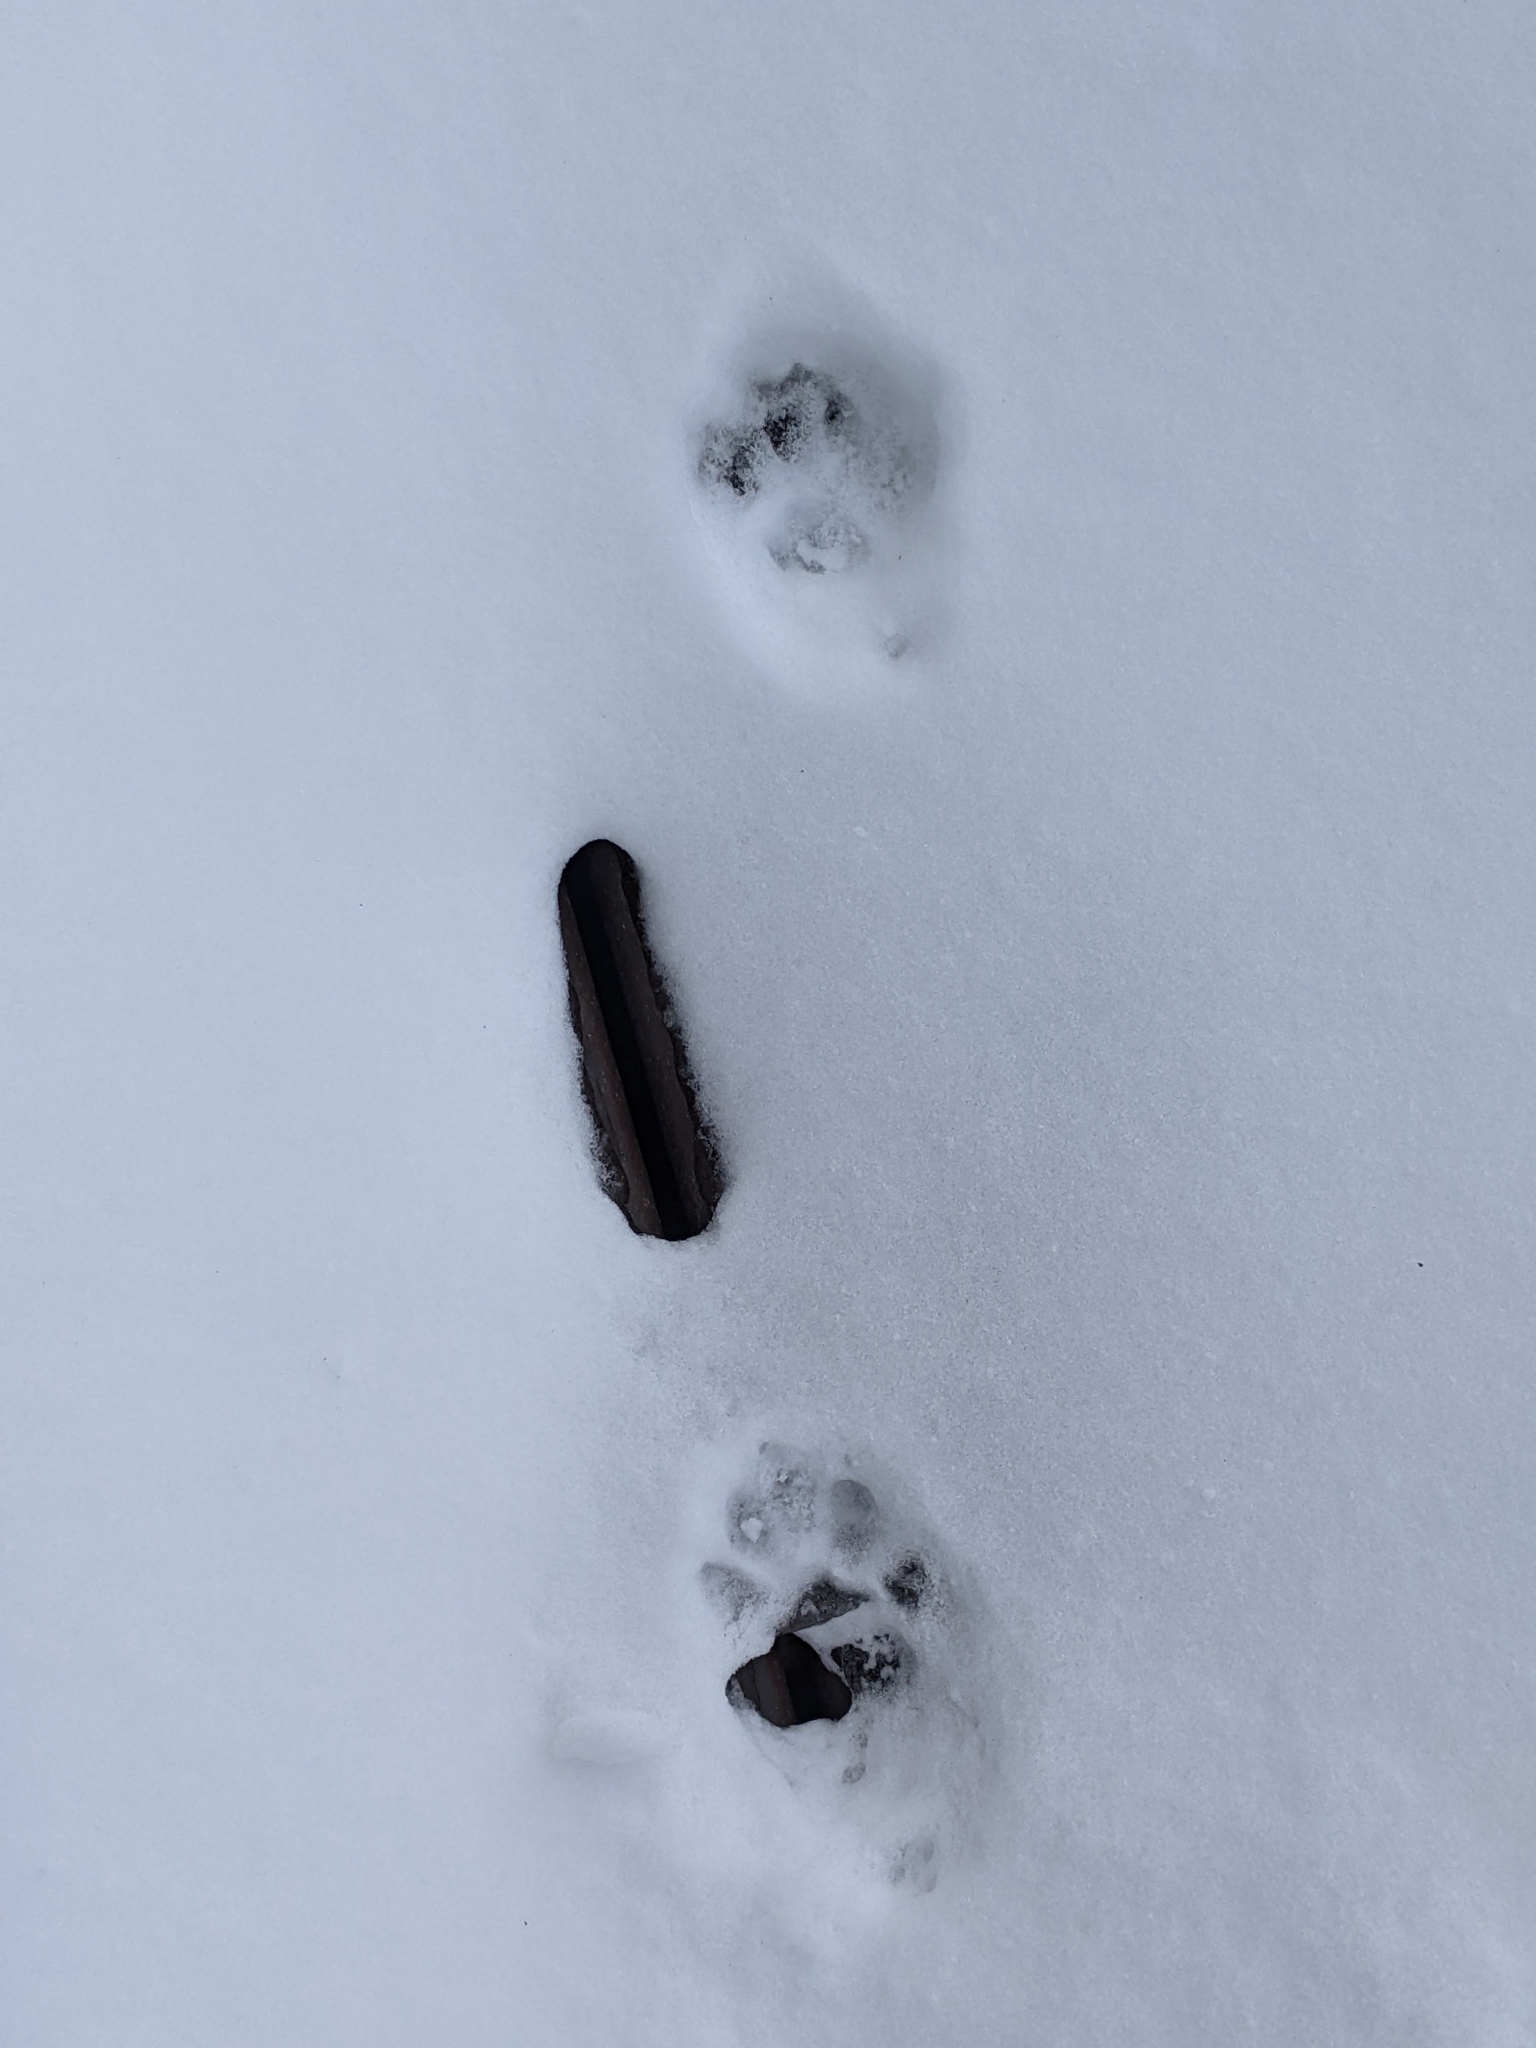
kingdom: Animalia
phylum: Chordata
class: Mammalia
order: Carnivora
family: Felidae
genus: Felis
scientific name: Felis catus
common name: Domestic cat
